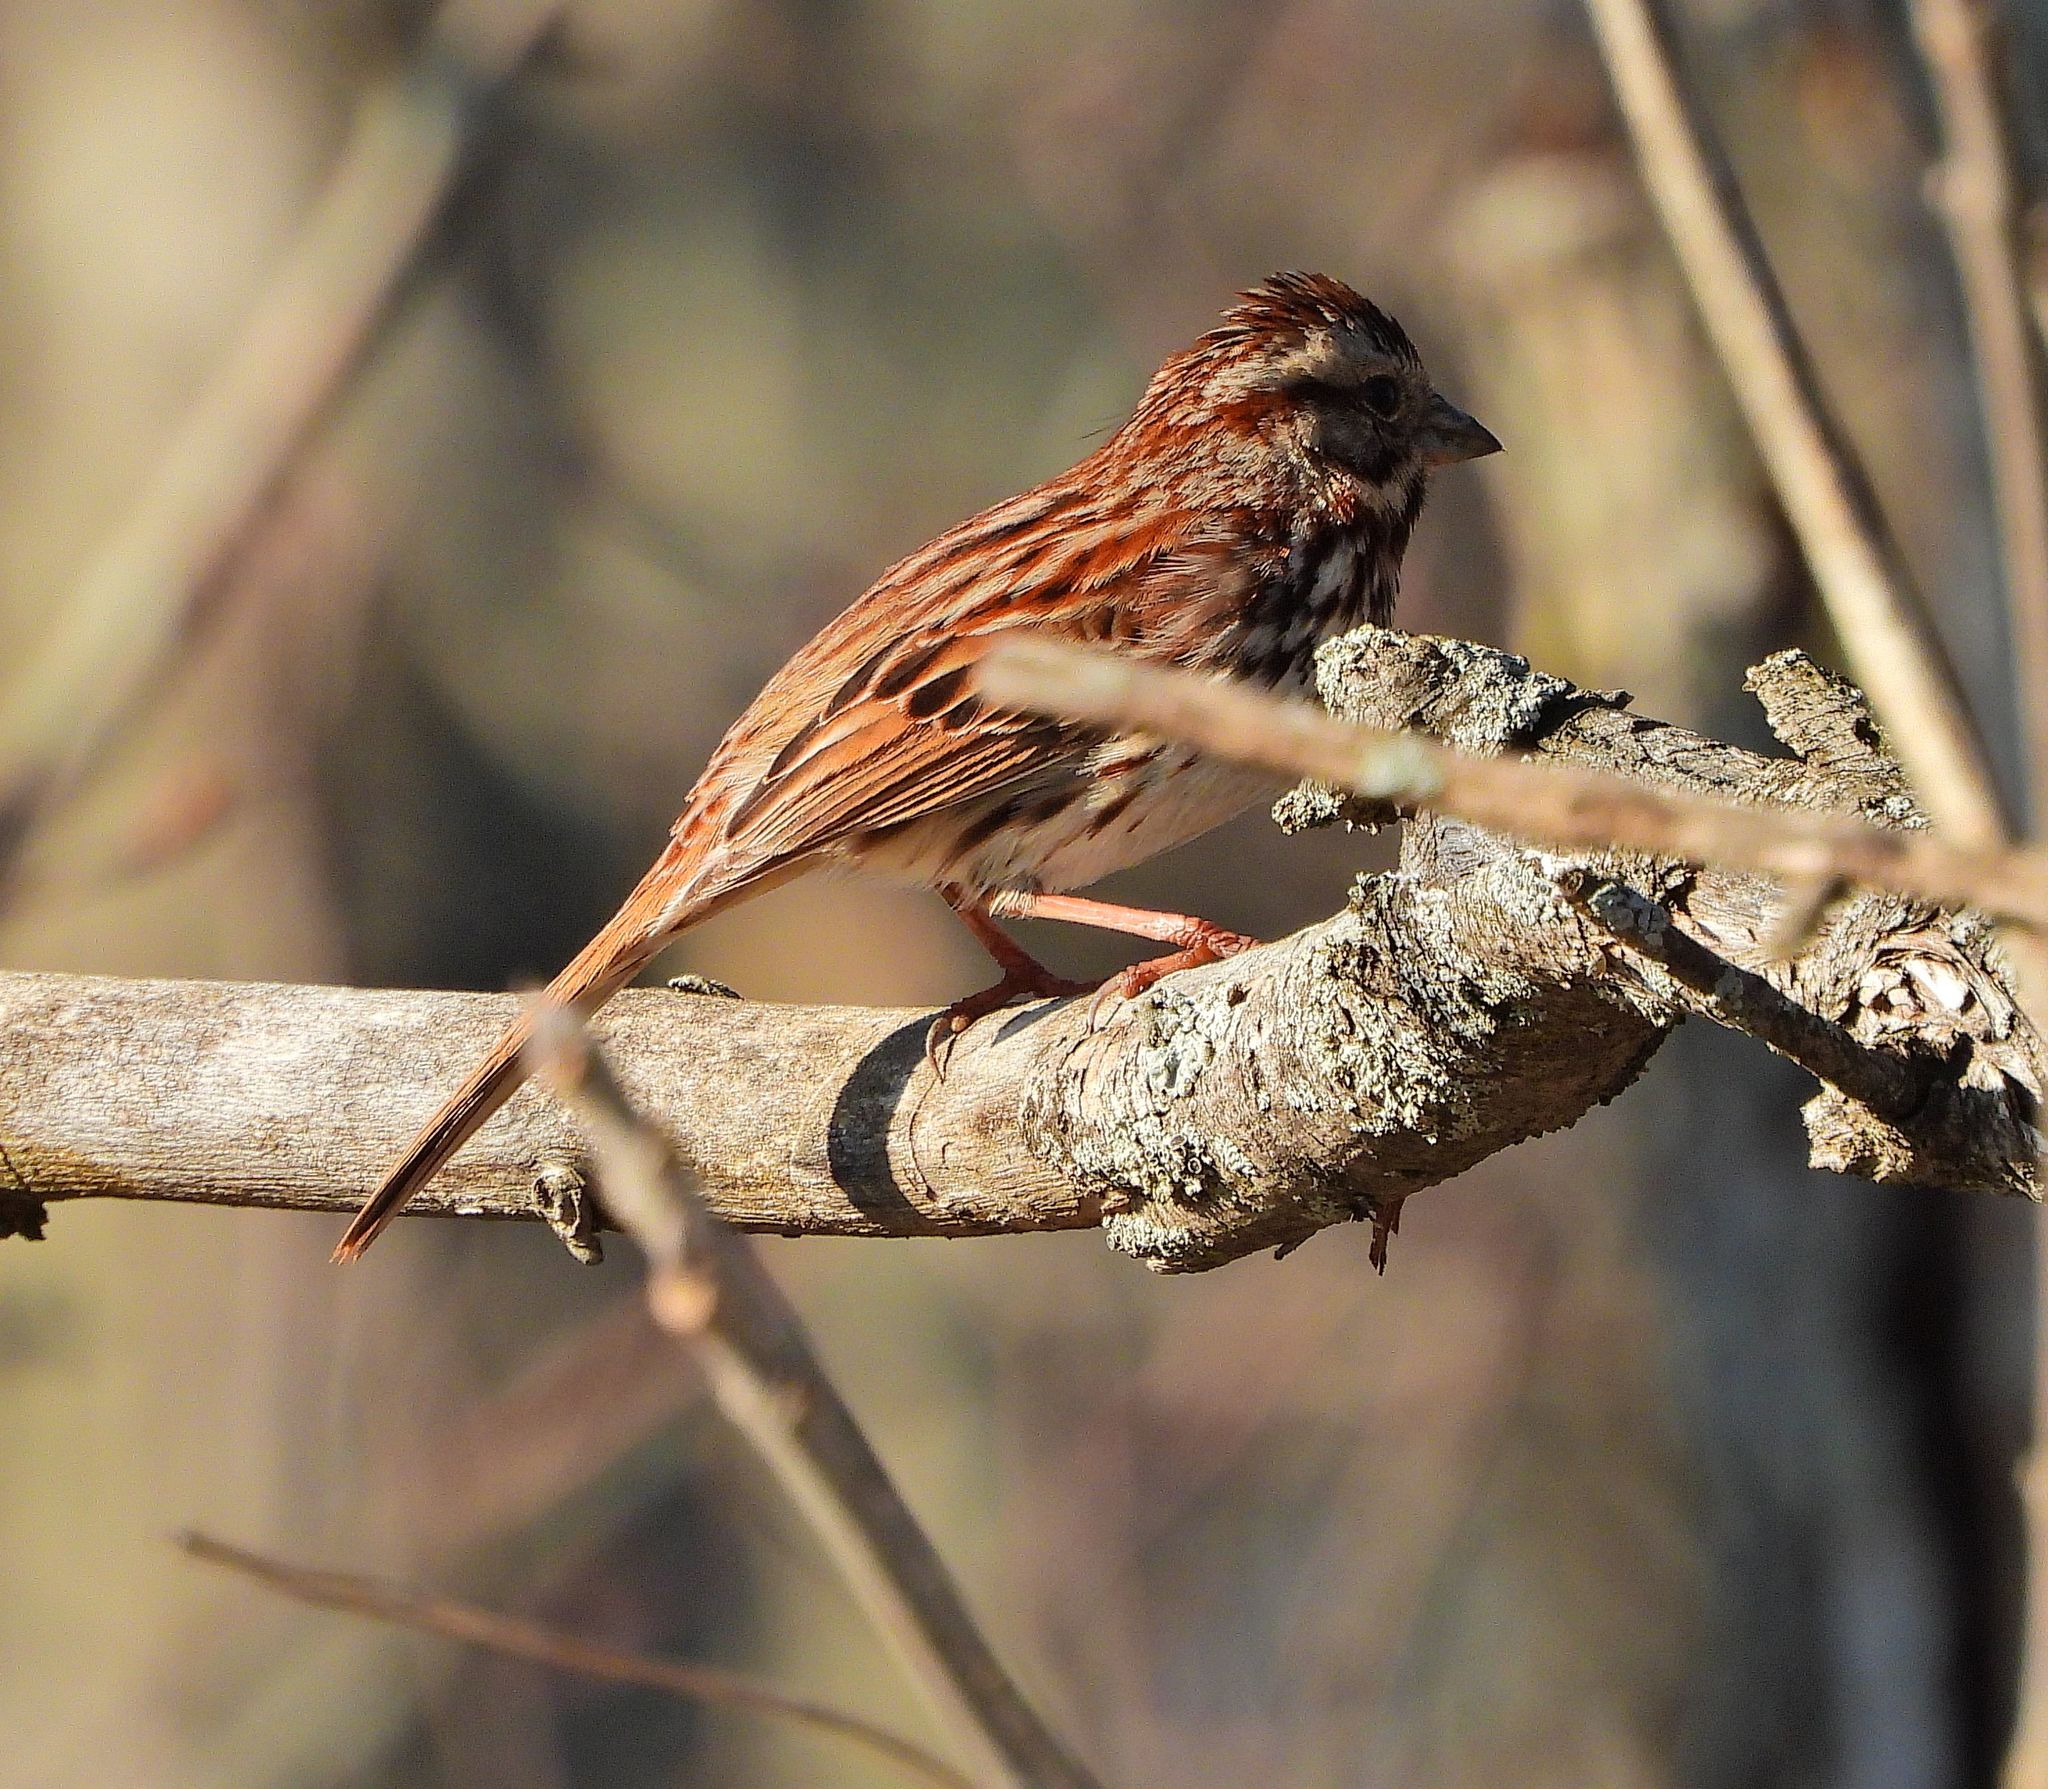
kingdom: Animalia
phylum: Chordata
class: Aves
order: Passeriformes
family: Passerellidae
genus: Melospiza
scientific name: Melospiza melodia
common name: Song sparrow
